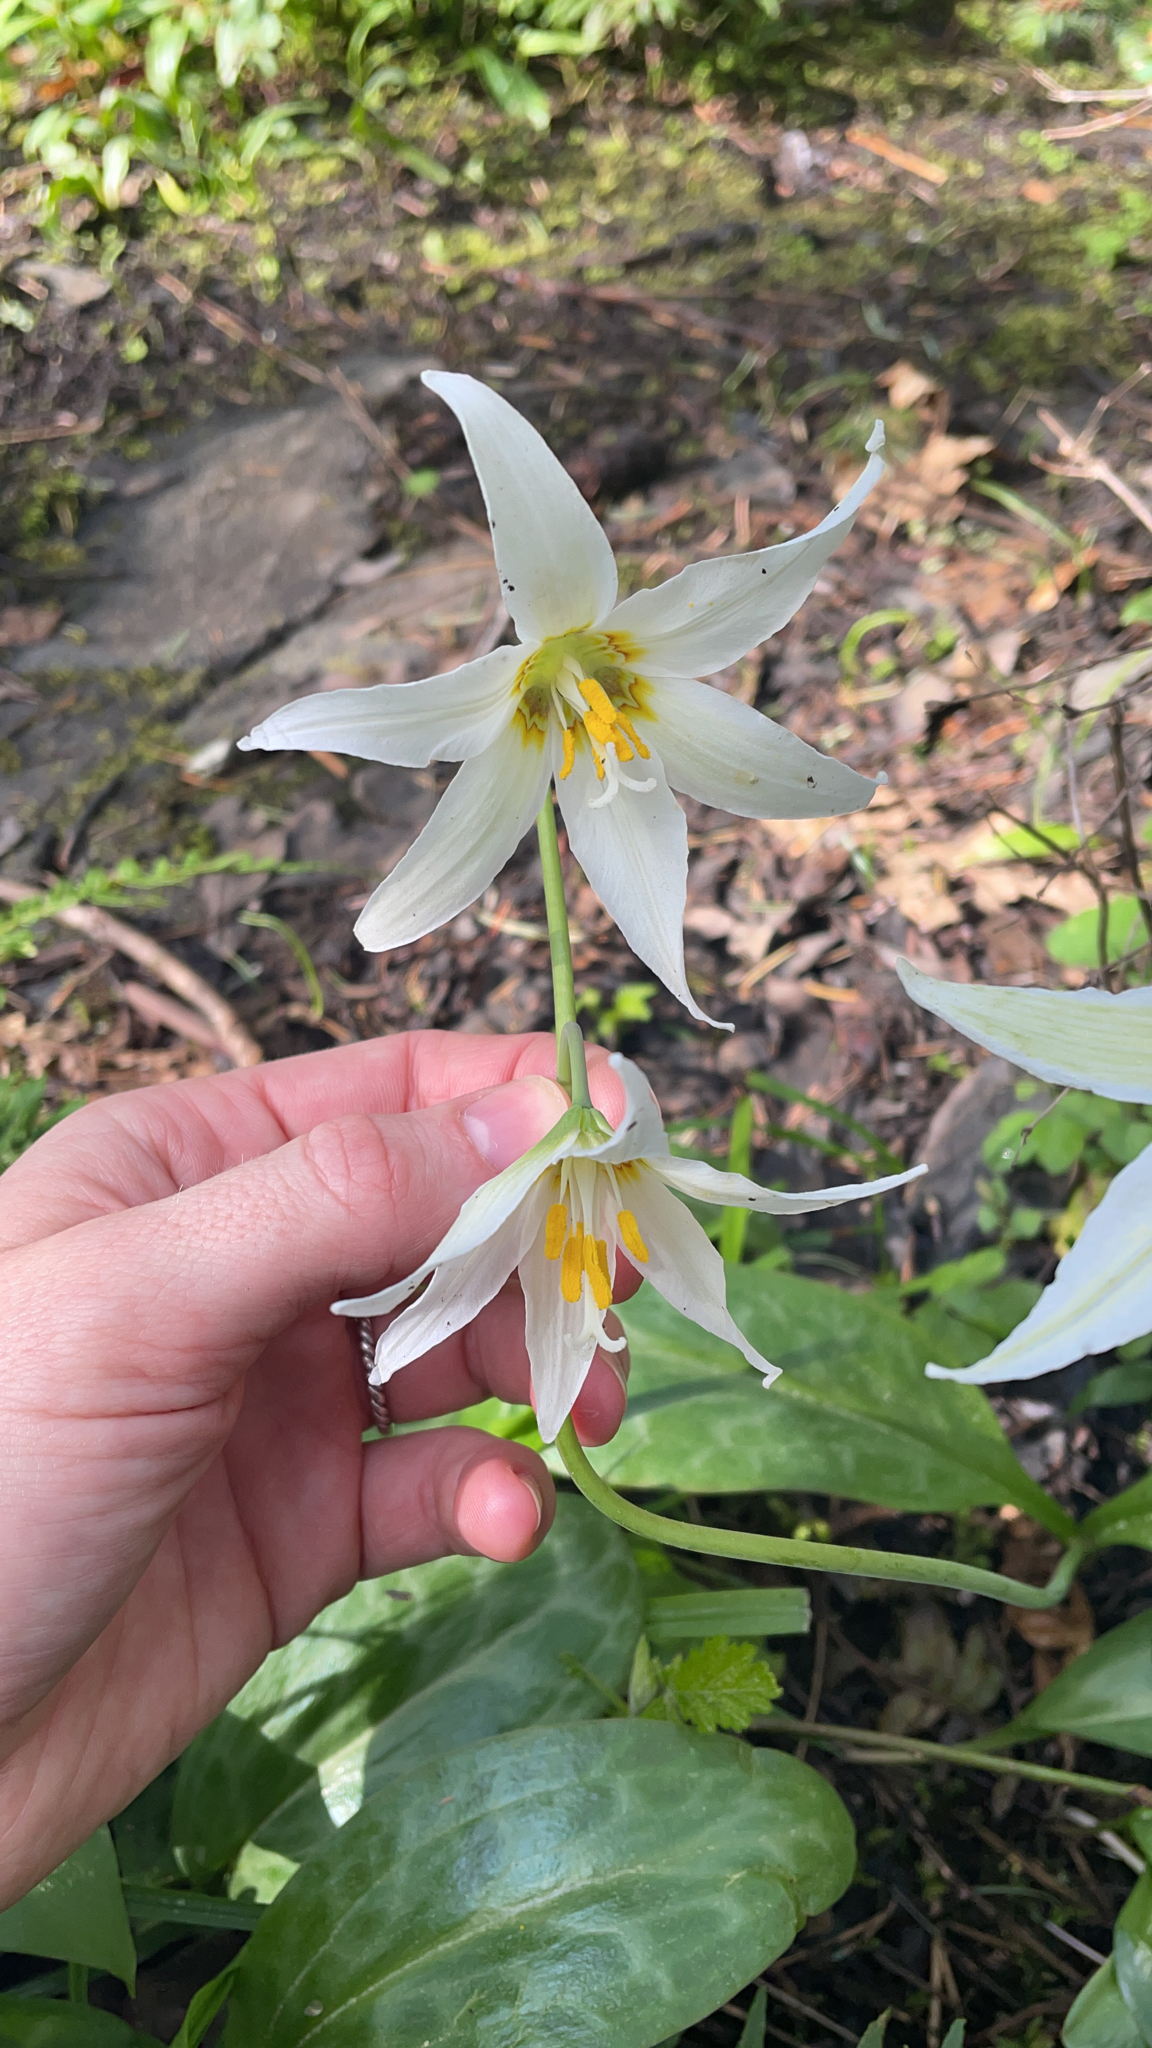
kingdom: Plantae
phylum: Tracheophyta
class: Liliopsida
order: Liliales
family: Liliaceae
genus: Erythronium
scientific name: Erythronium oregonum
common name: Giant adder's-tongue
